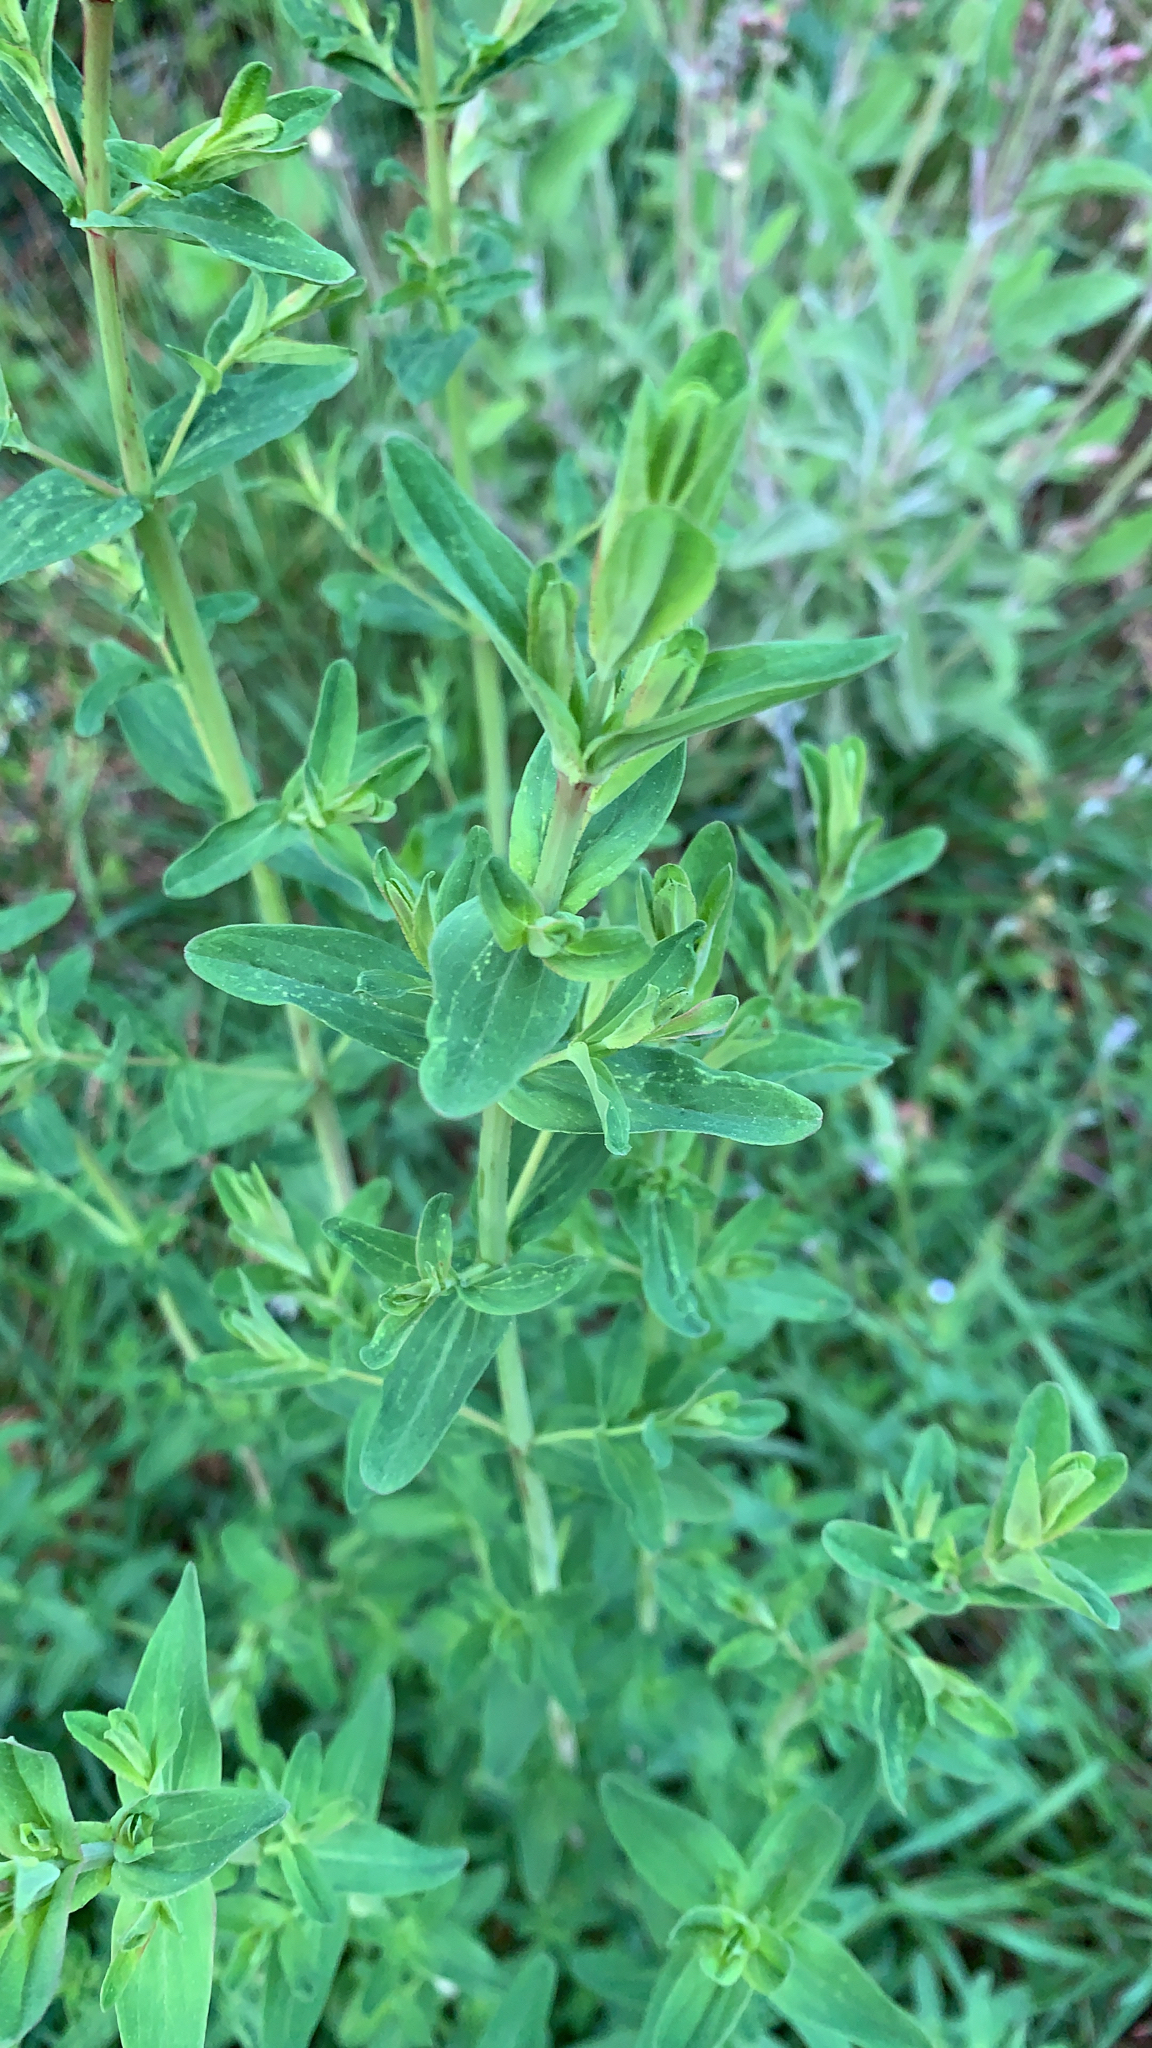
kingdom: Plantae
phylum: Tracheophyta
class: Magnoliopsida
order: Malpighiales
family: Hypericaceae
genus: Hypericum
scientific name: Hypericum perforatum
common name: Common st. johnswort
